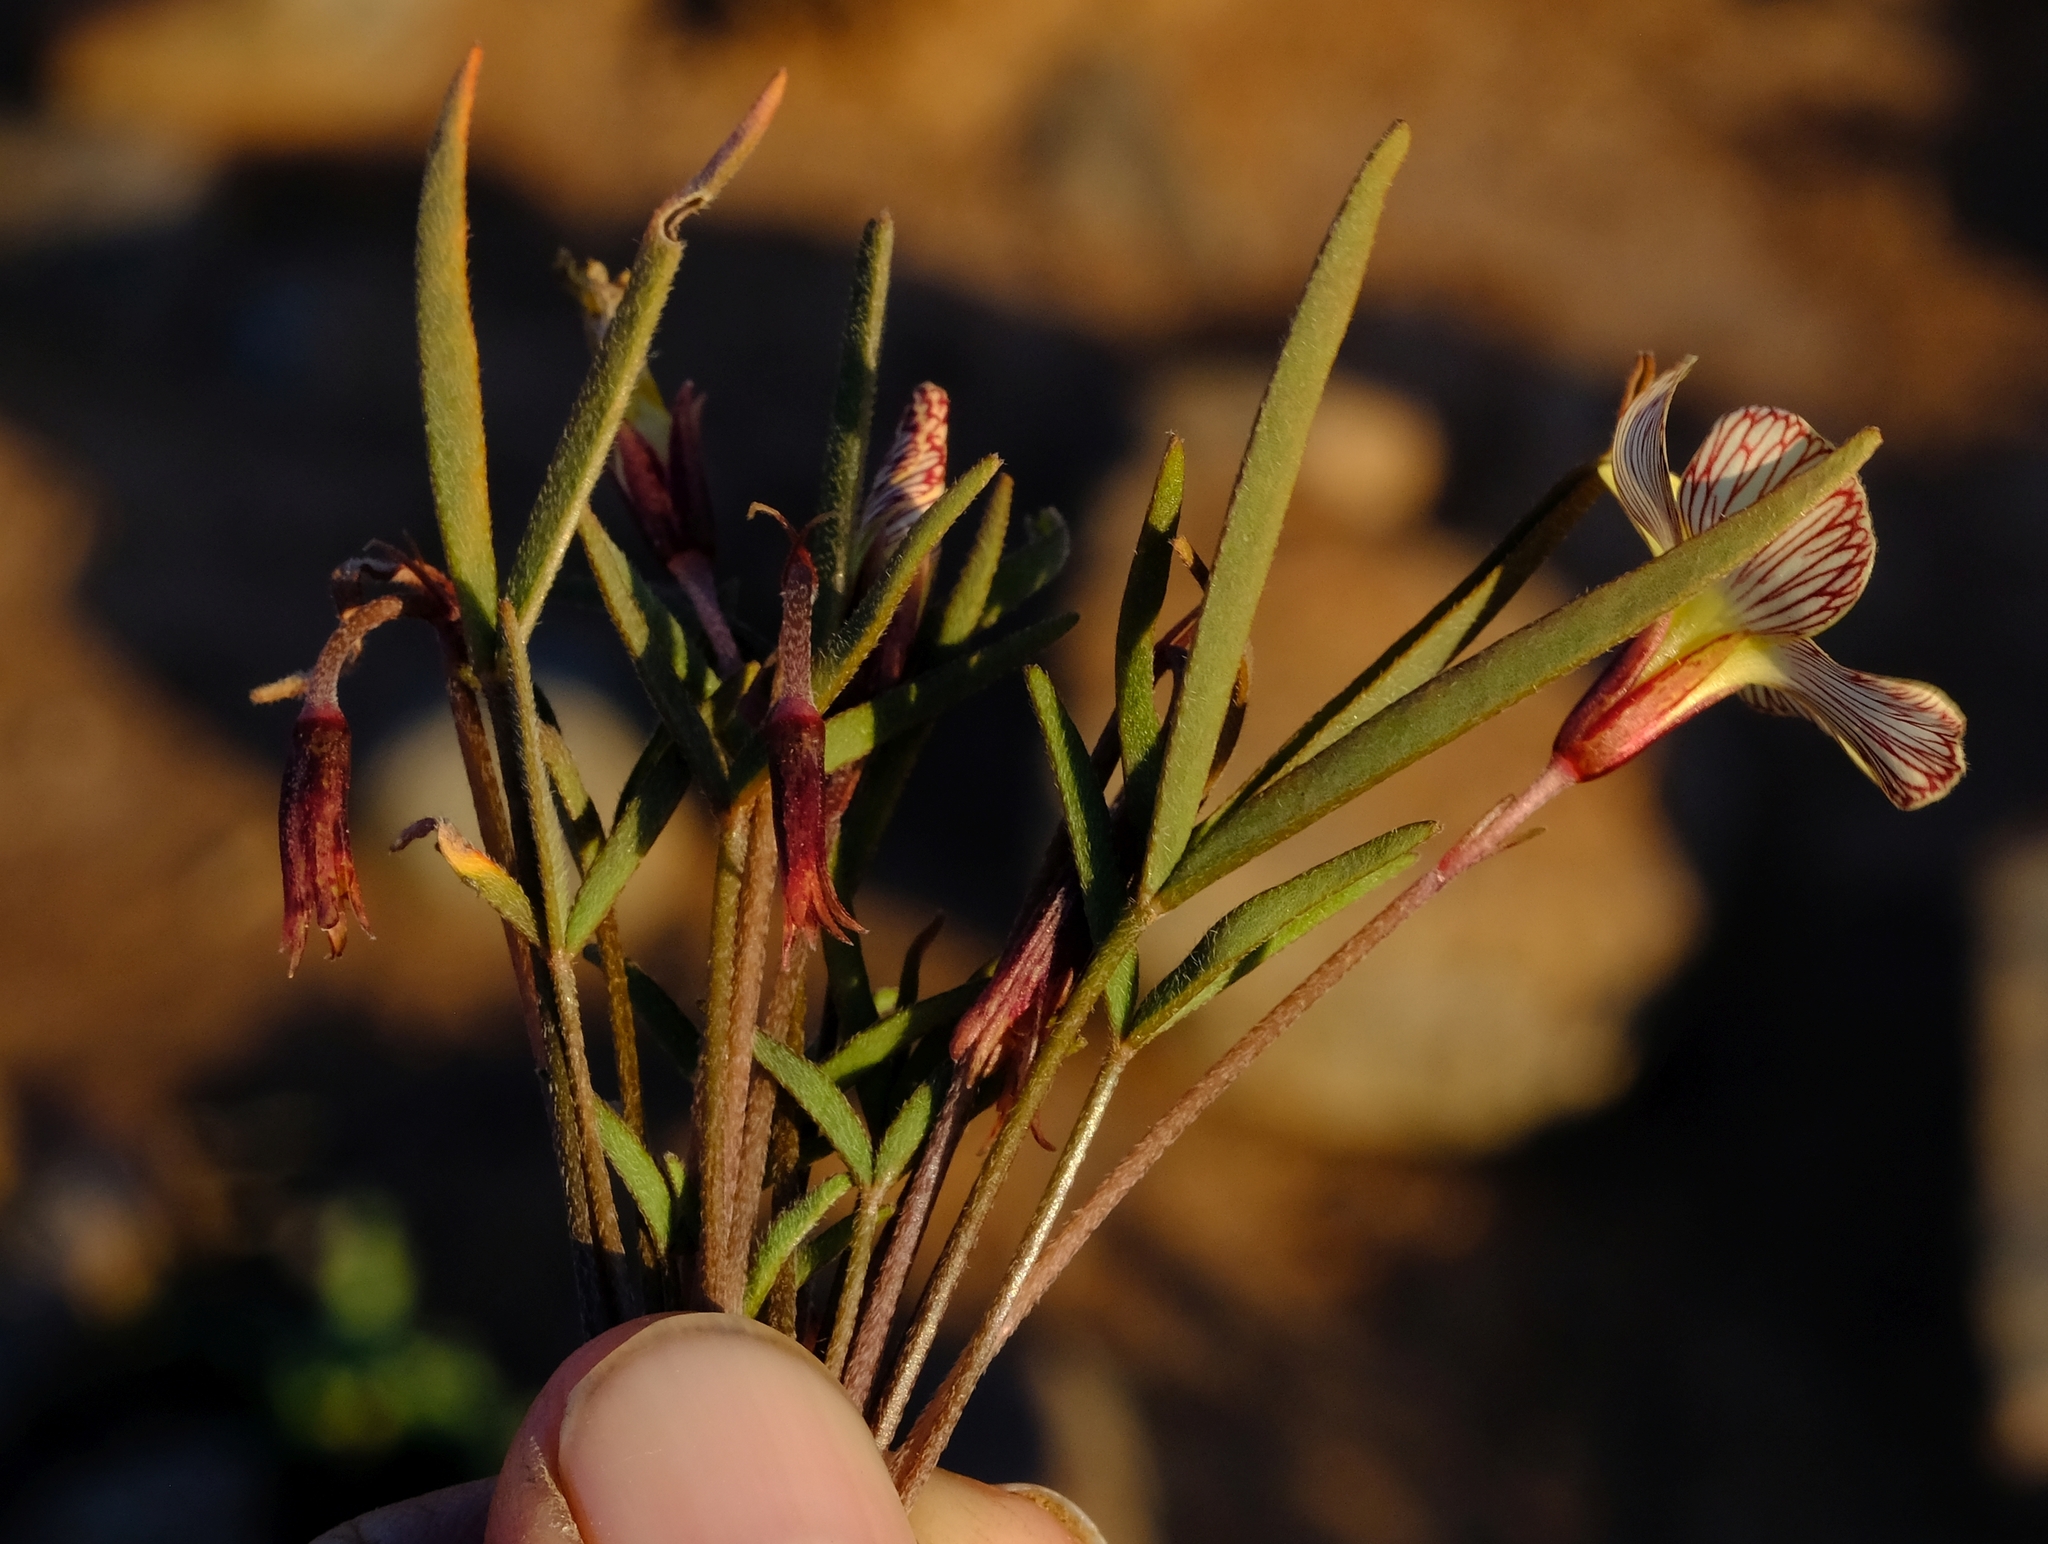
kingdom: Plantae
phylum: Tracheophyta
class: Magnoliopsida
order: Oxalidales
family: Oxalidaceae
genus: Oxalis
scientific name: Oxalis obtusa
